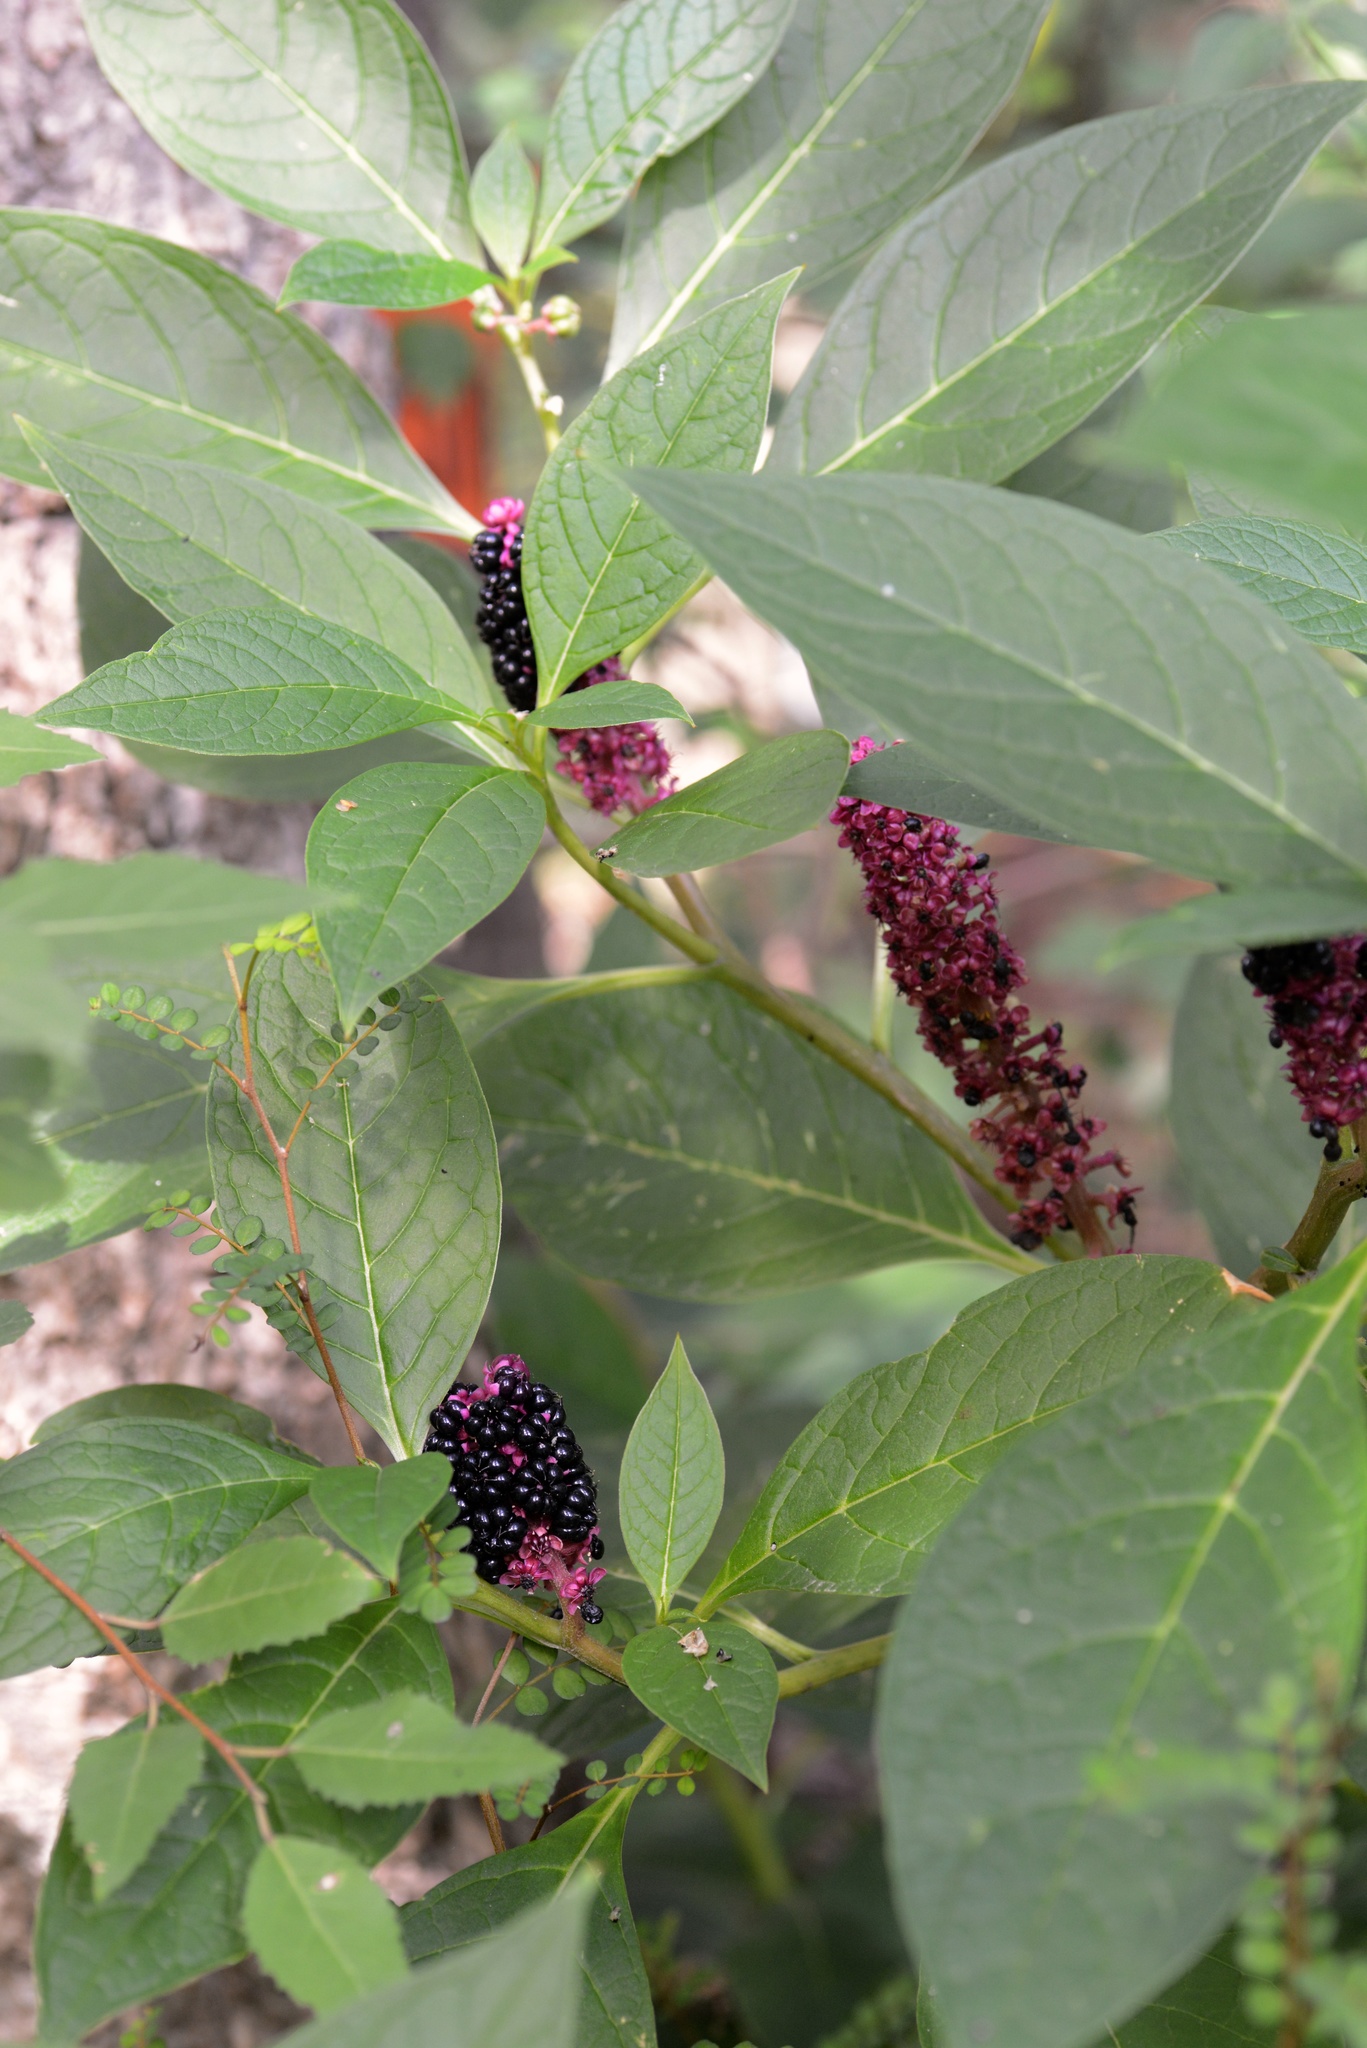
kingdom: Plantae
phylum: Tracheophyta
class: Magnoliopsida
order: Caryophyllales
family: Phytolaccaceae
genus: Phytolacca
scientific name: Phytolacca acinosa
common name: Indian pokeweed
